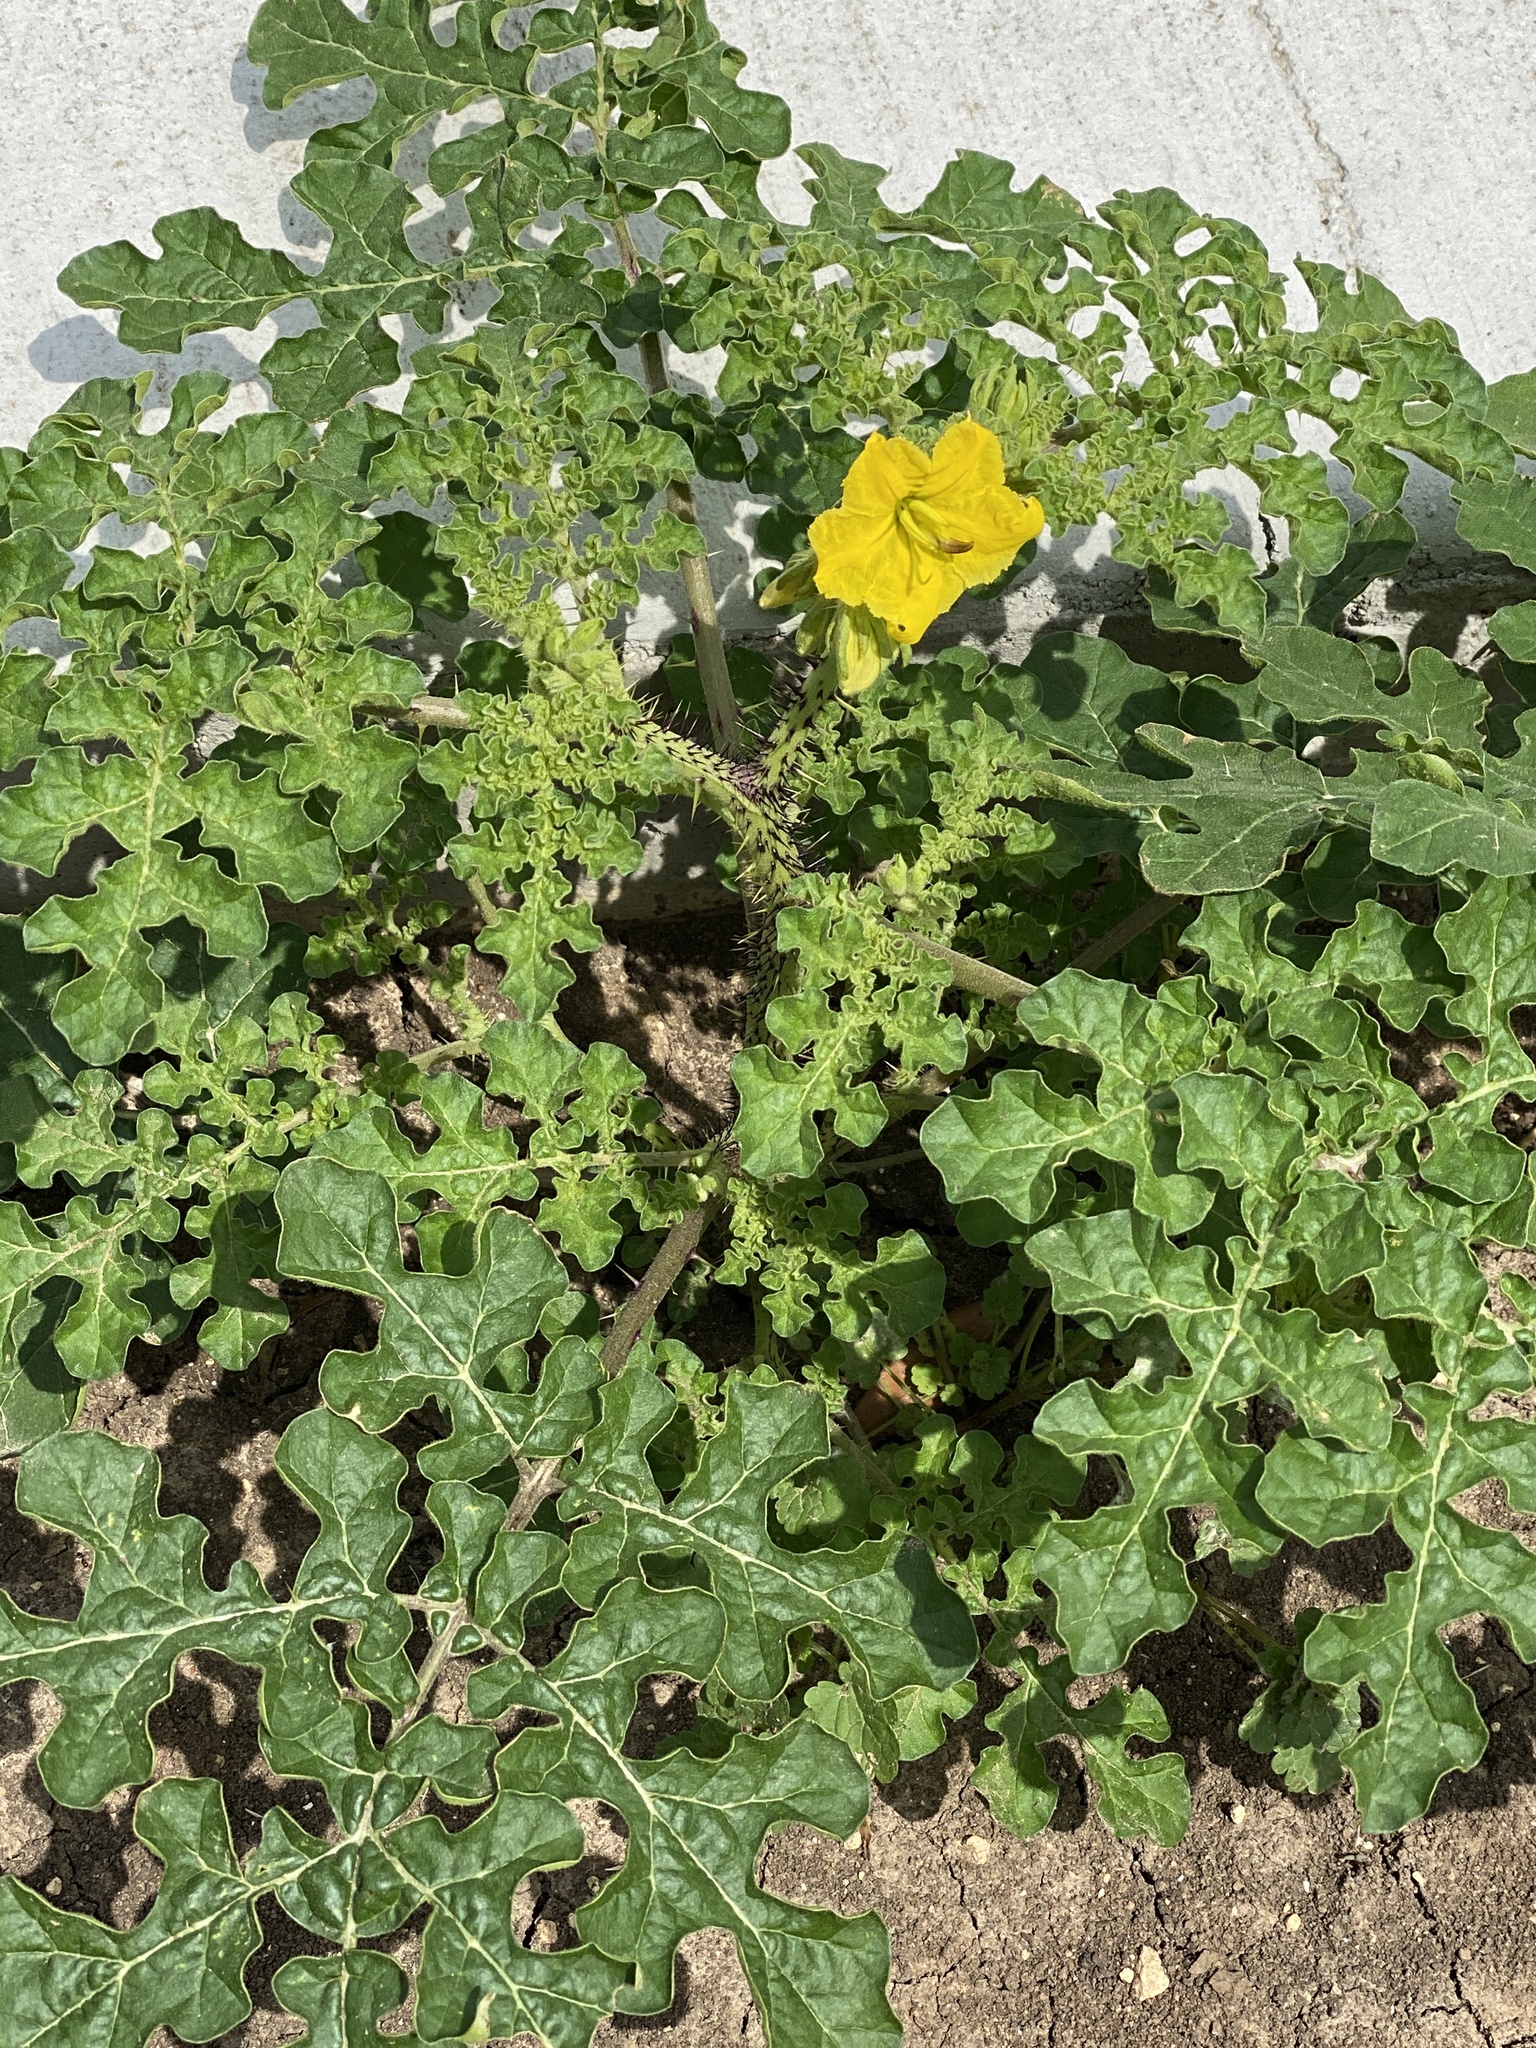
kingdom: Plantae
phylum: Tracheophyta
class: Magnoliopsida
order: Solanales
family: Solanaceae
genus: Solanum
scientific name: Solanum angustifolium
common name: Buffalobur nightshade
